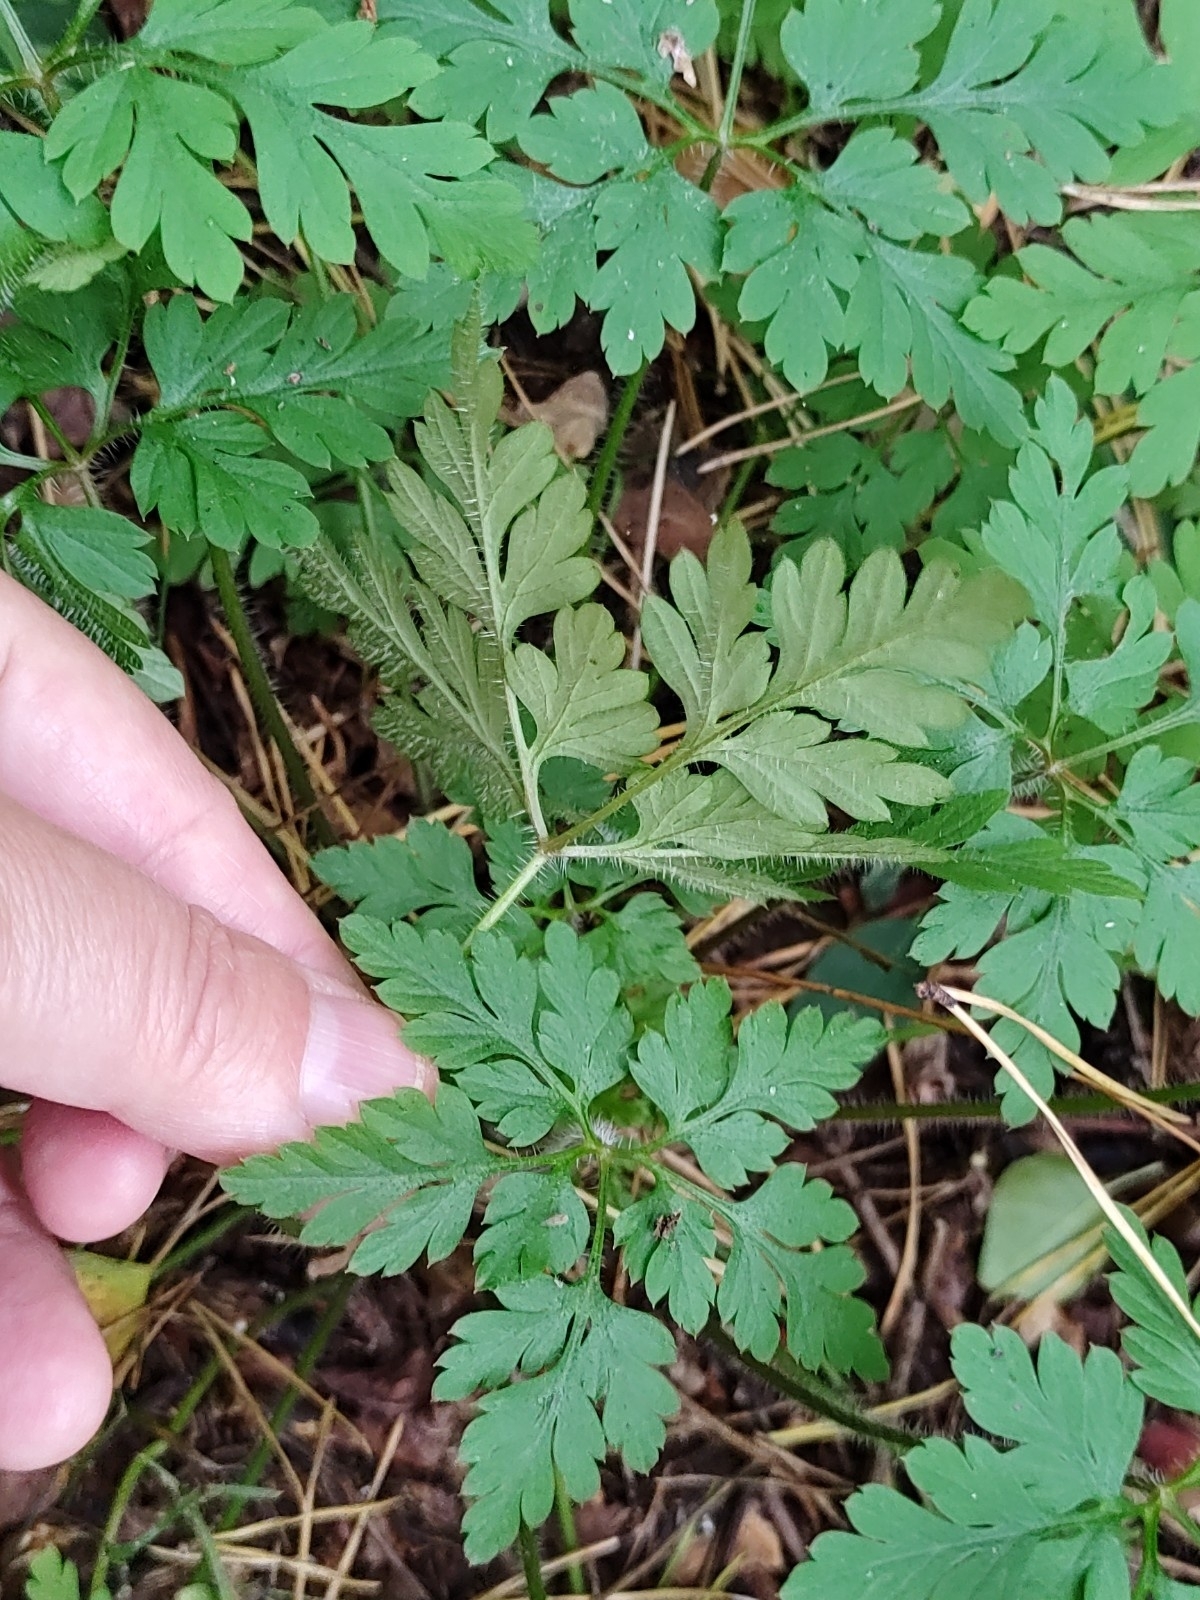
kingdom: Plantae
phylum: Tracheophyta
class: Magnoliopsida
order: Geraniales
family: Geraniaceae
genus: Geranium
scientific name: Geranium robertianum
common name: Herb-robert
